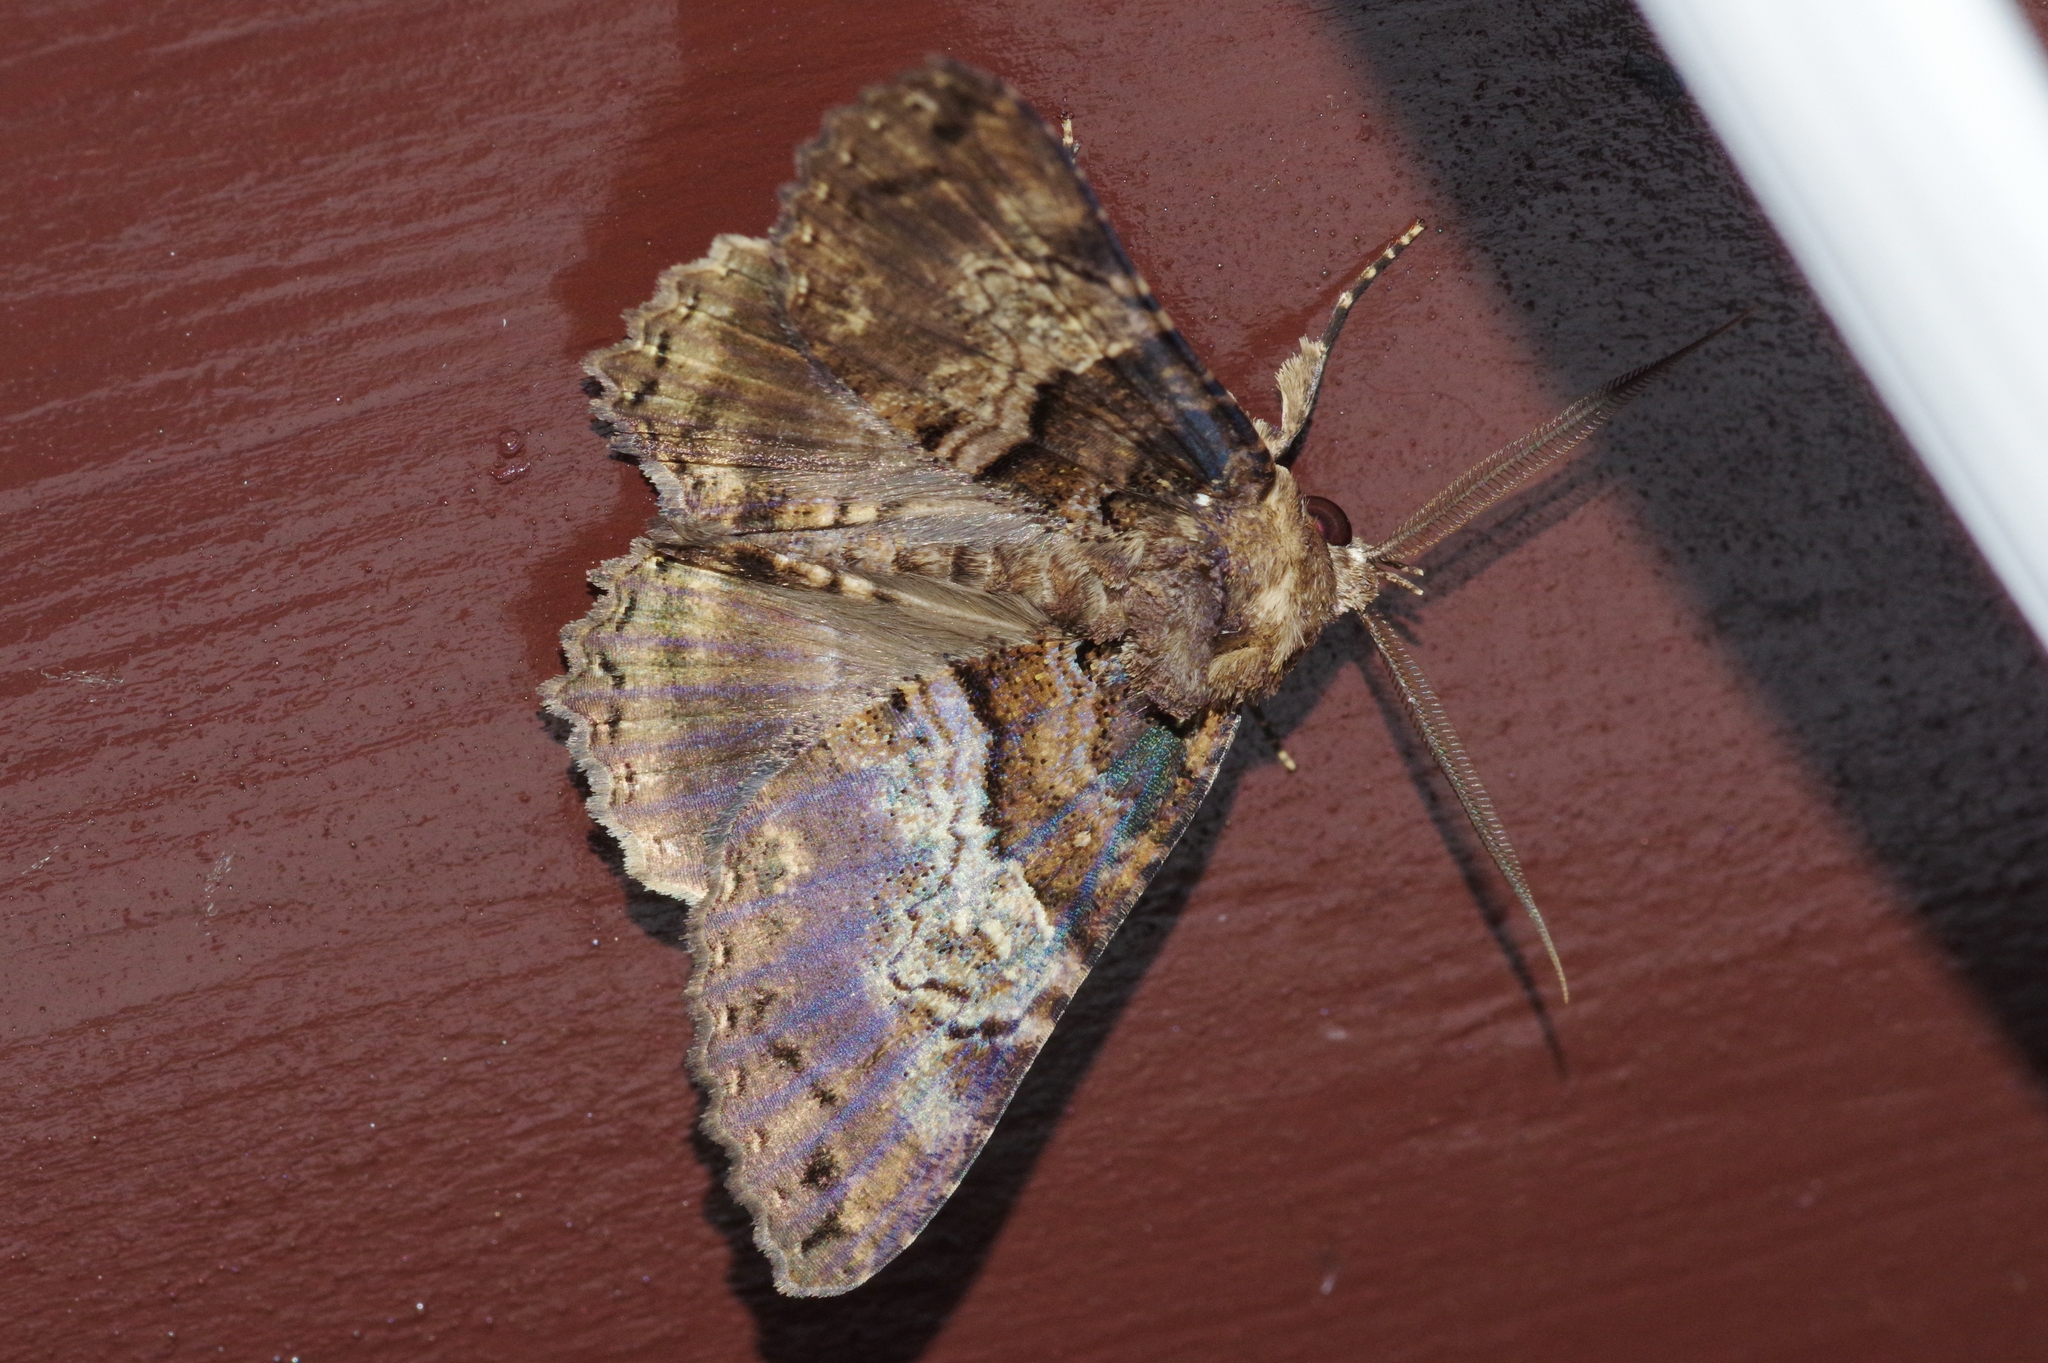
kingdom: Animalia
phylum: Arthropoda
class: Insecta
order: Lepidoptera
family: Erebidae
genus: Daddala
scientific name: Daddala lucilla
